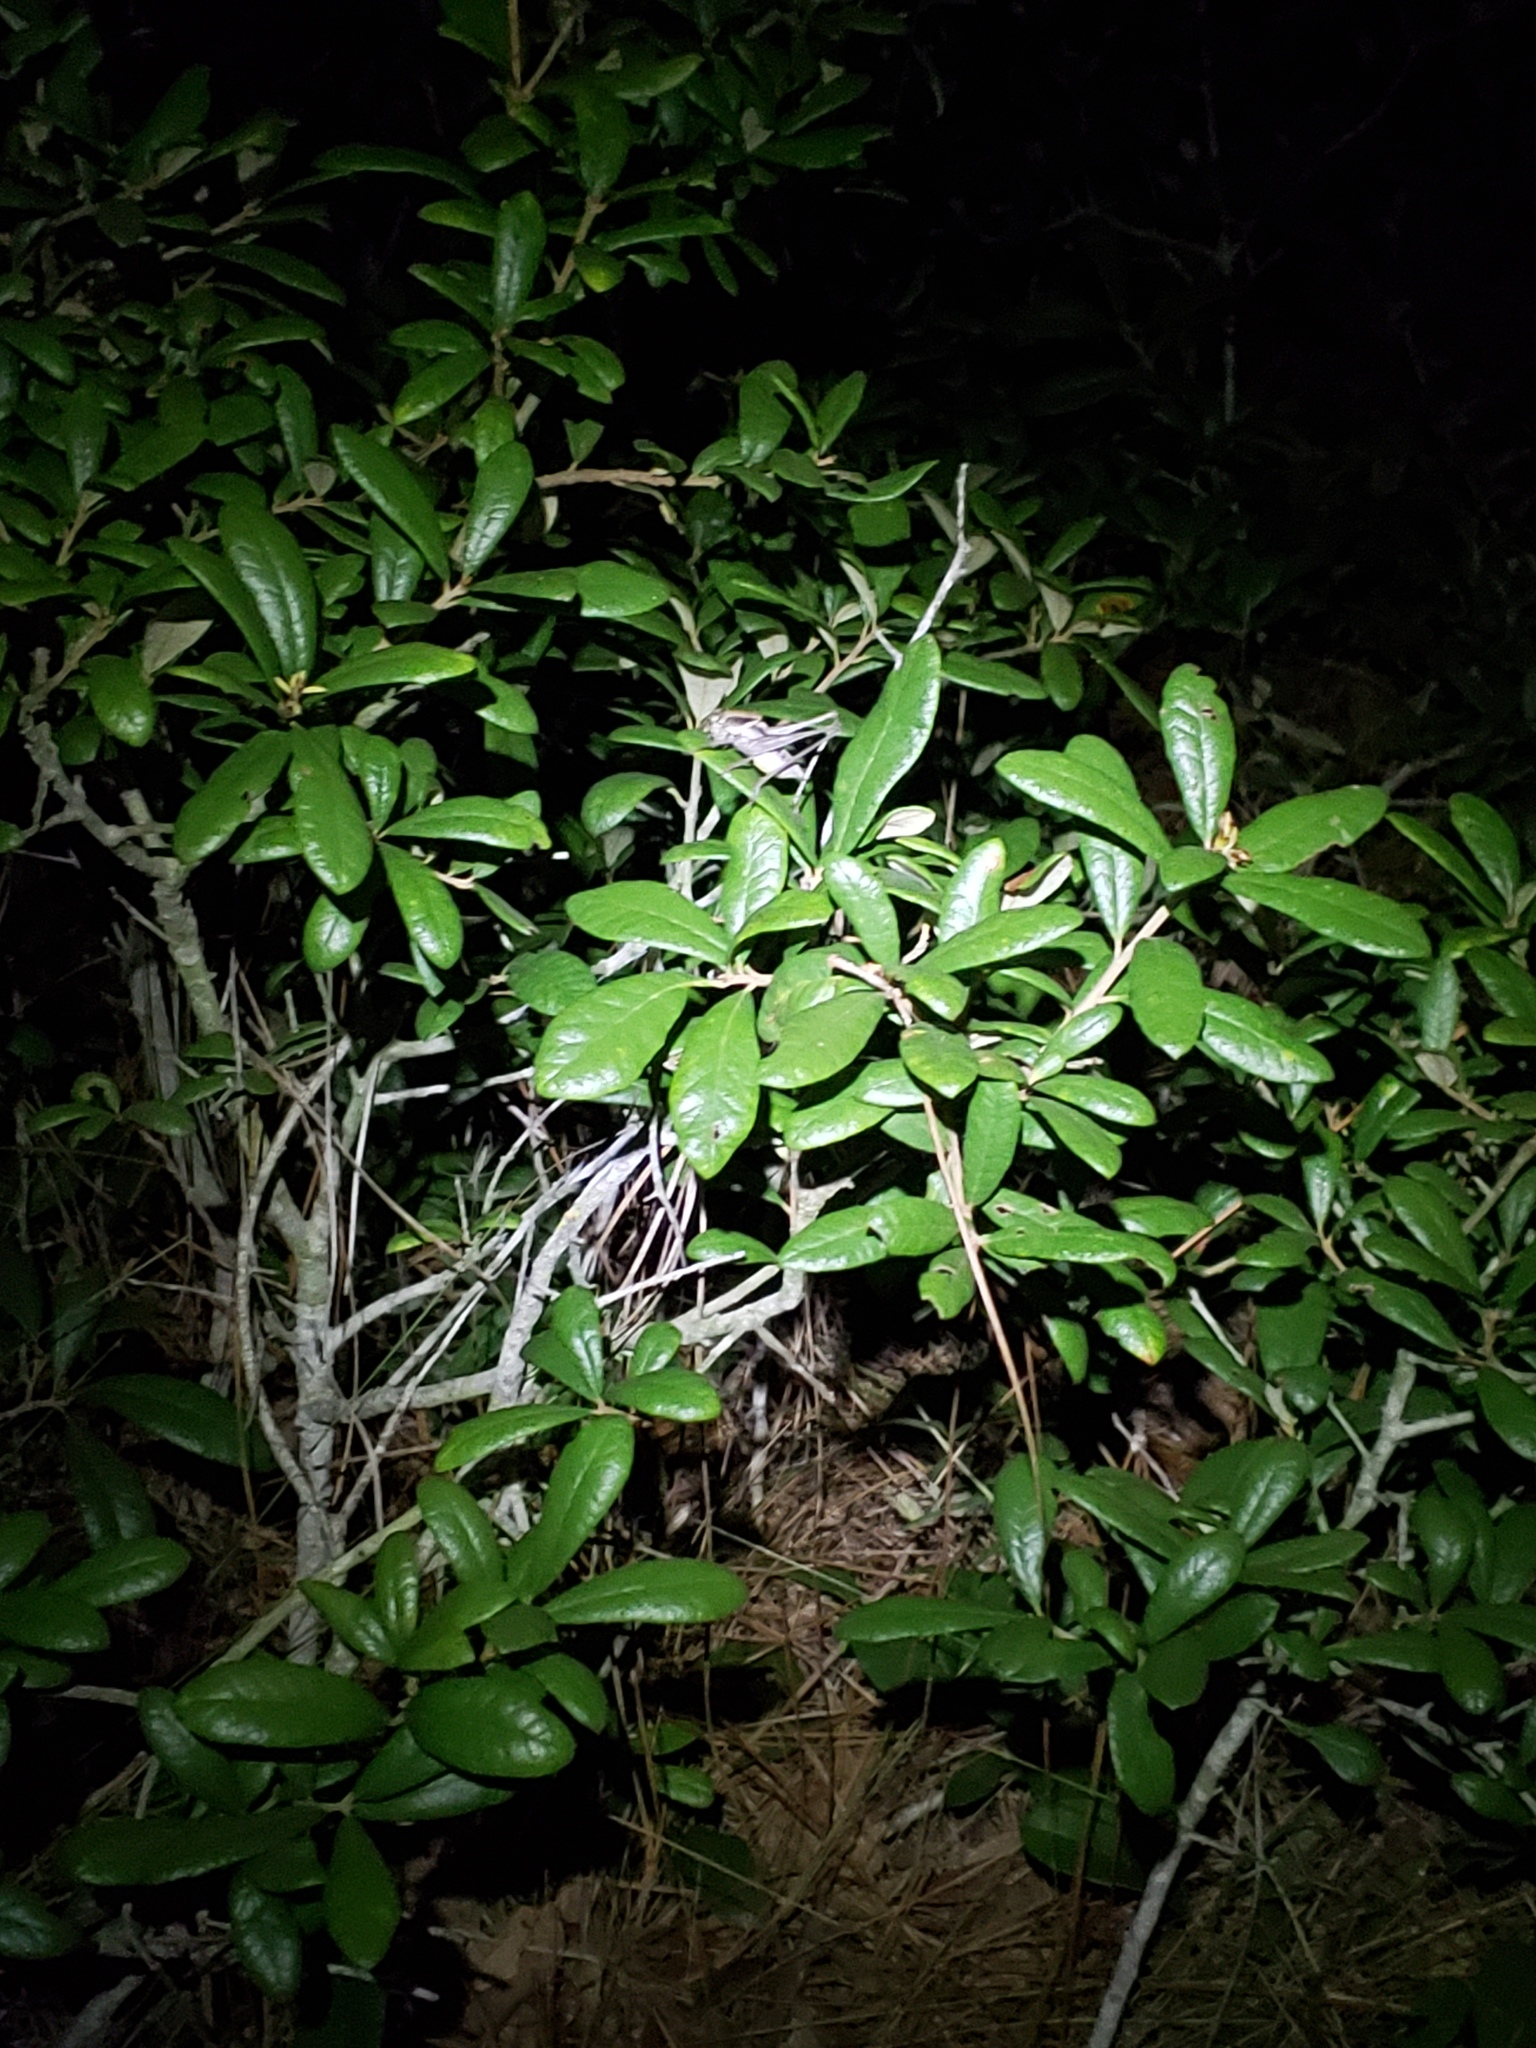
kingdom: Animalia
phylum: Arthropoda
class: Insecta
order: Orthoptera
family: Tettigoniidae
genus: Atlanticus
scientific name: Atlanticus glaber
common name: Smooth shield-bearer
